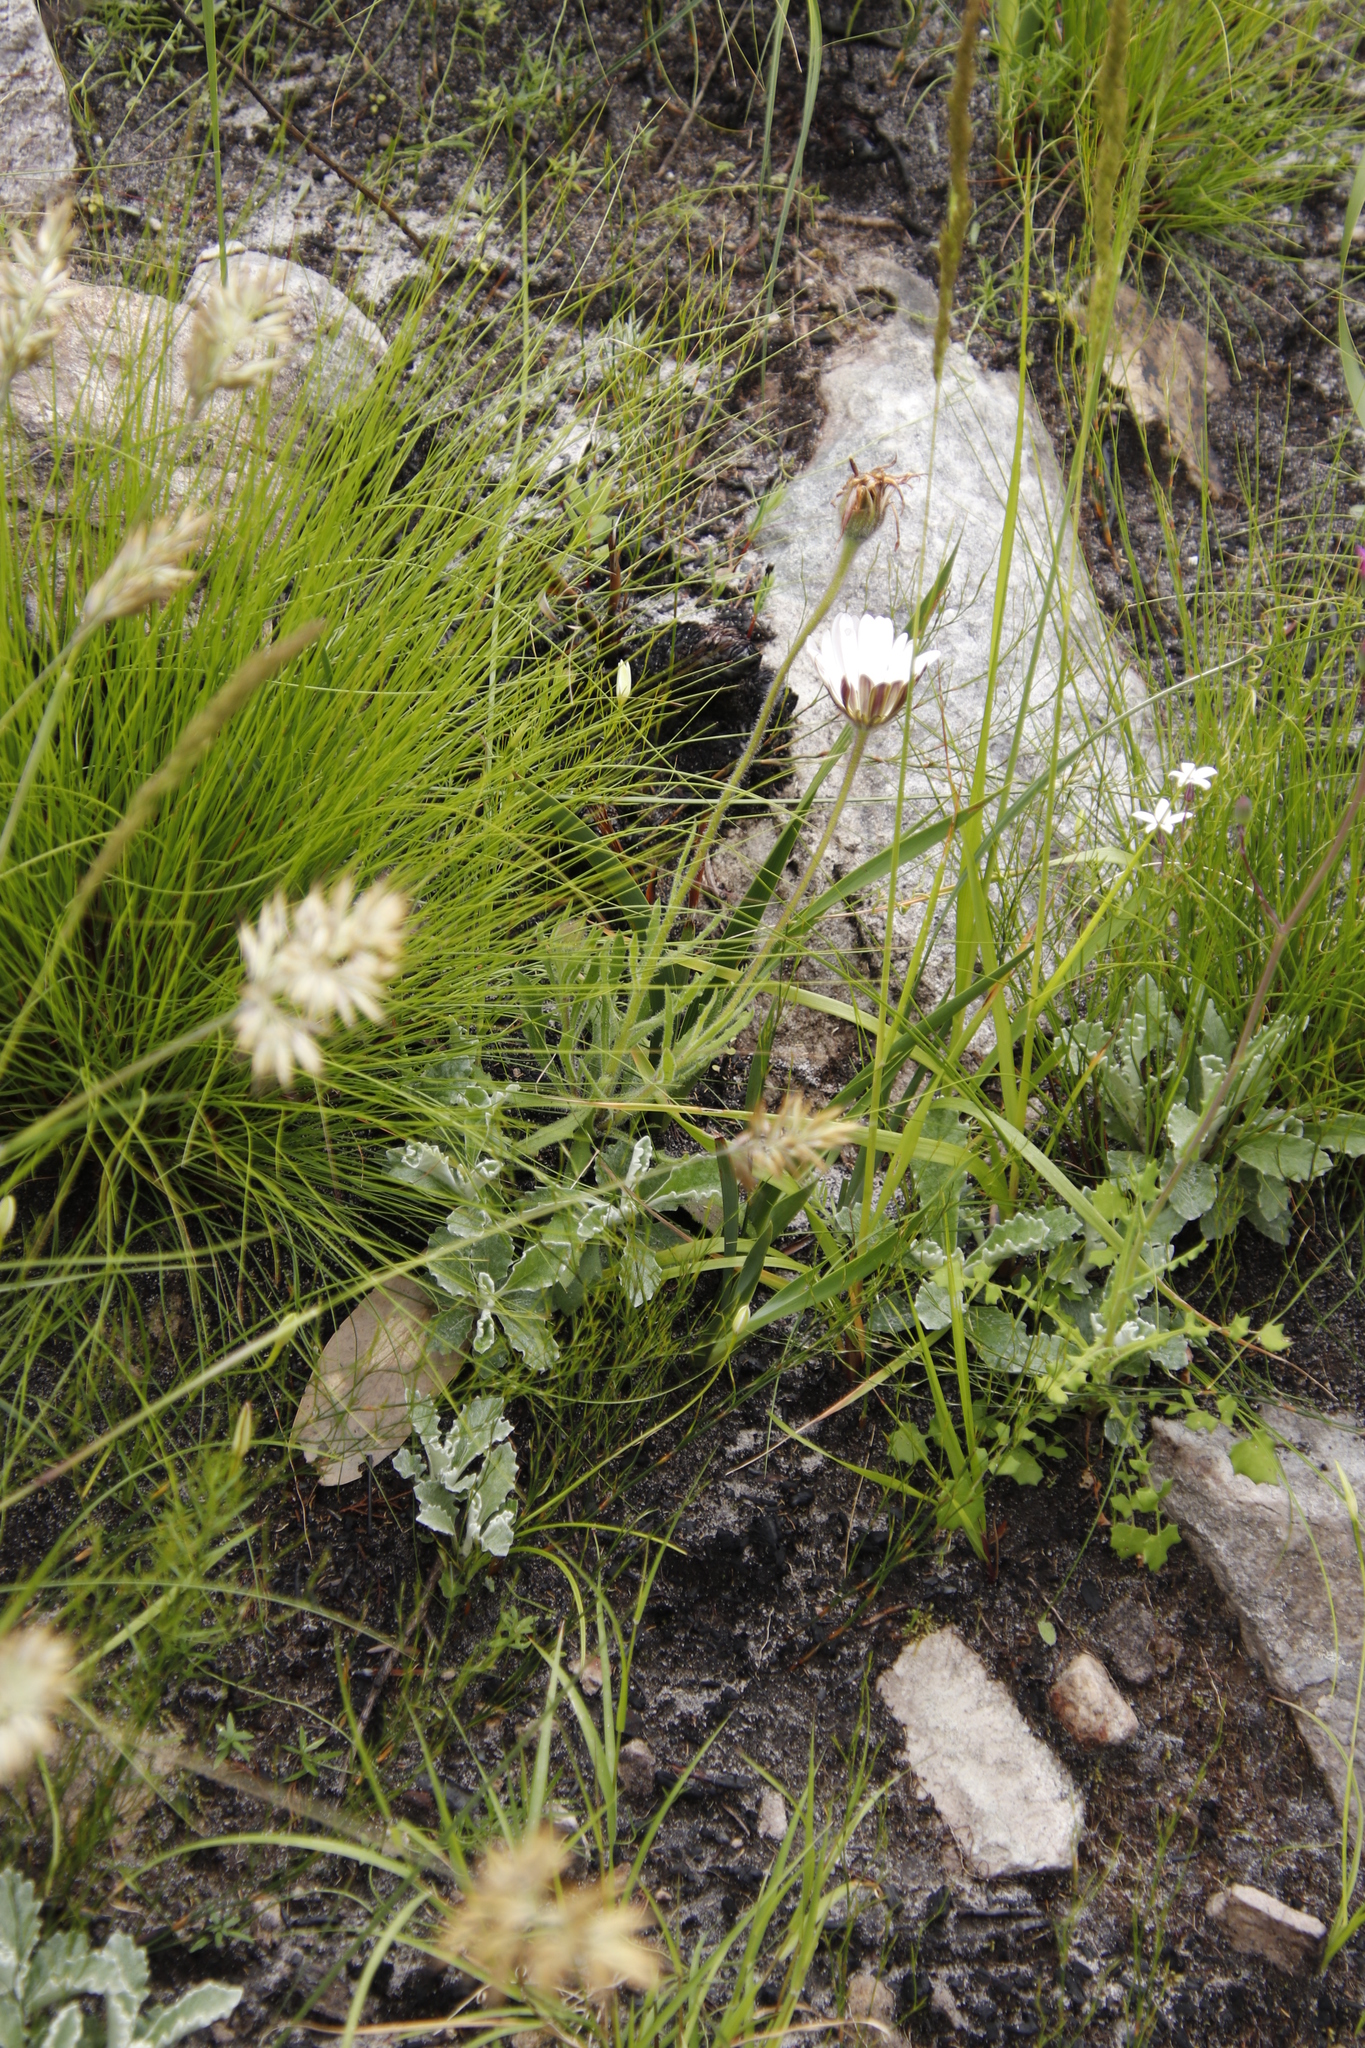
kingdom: Plantae
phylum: Tracheophyta
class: Magnoliopsida
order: Asterales
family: Asteraceae
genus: Dimorphotheca
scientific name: Dimorphotheca nudicaulis
